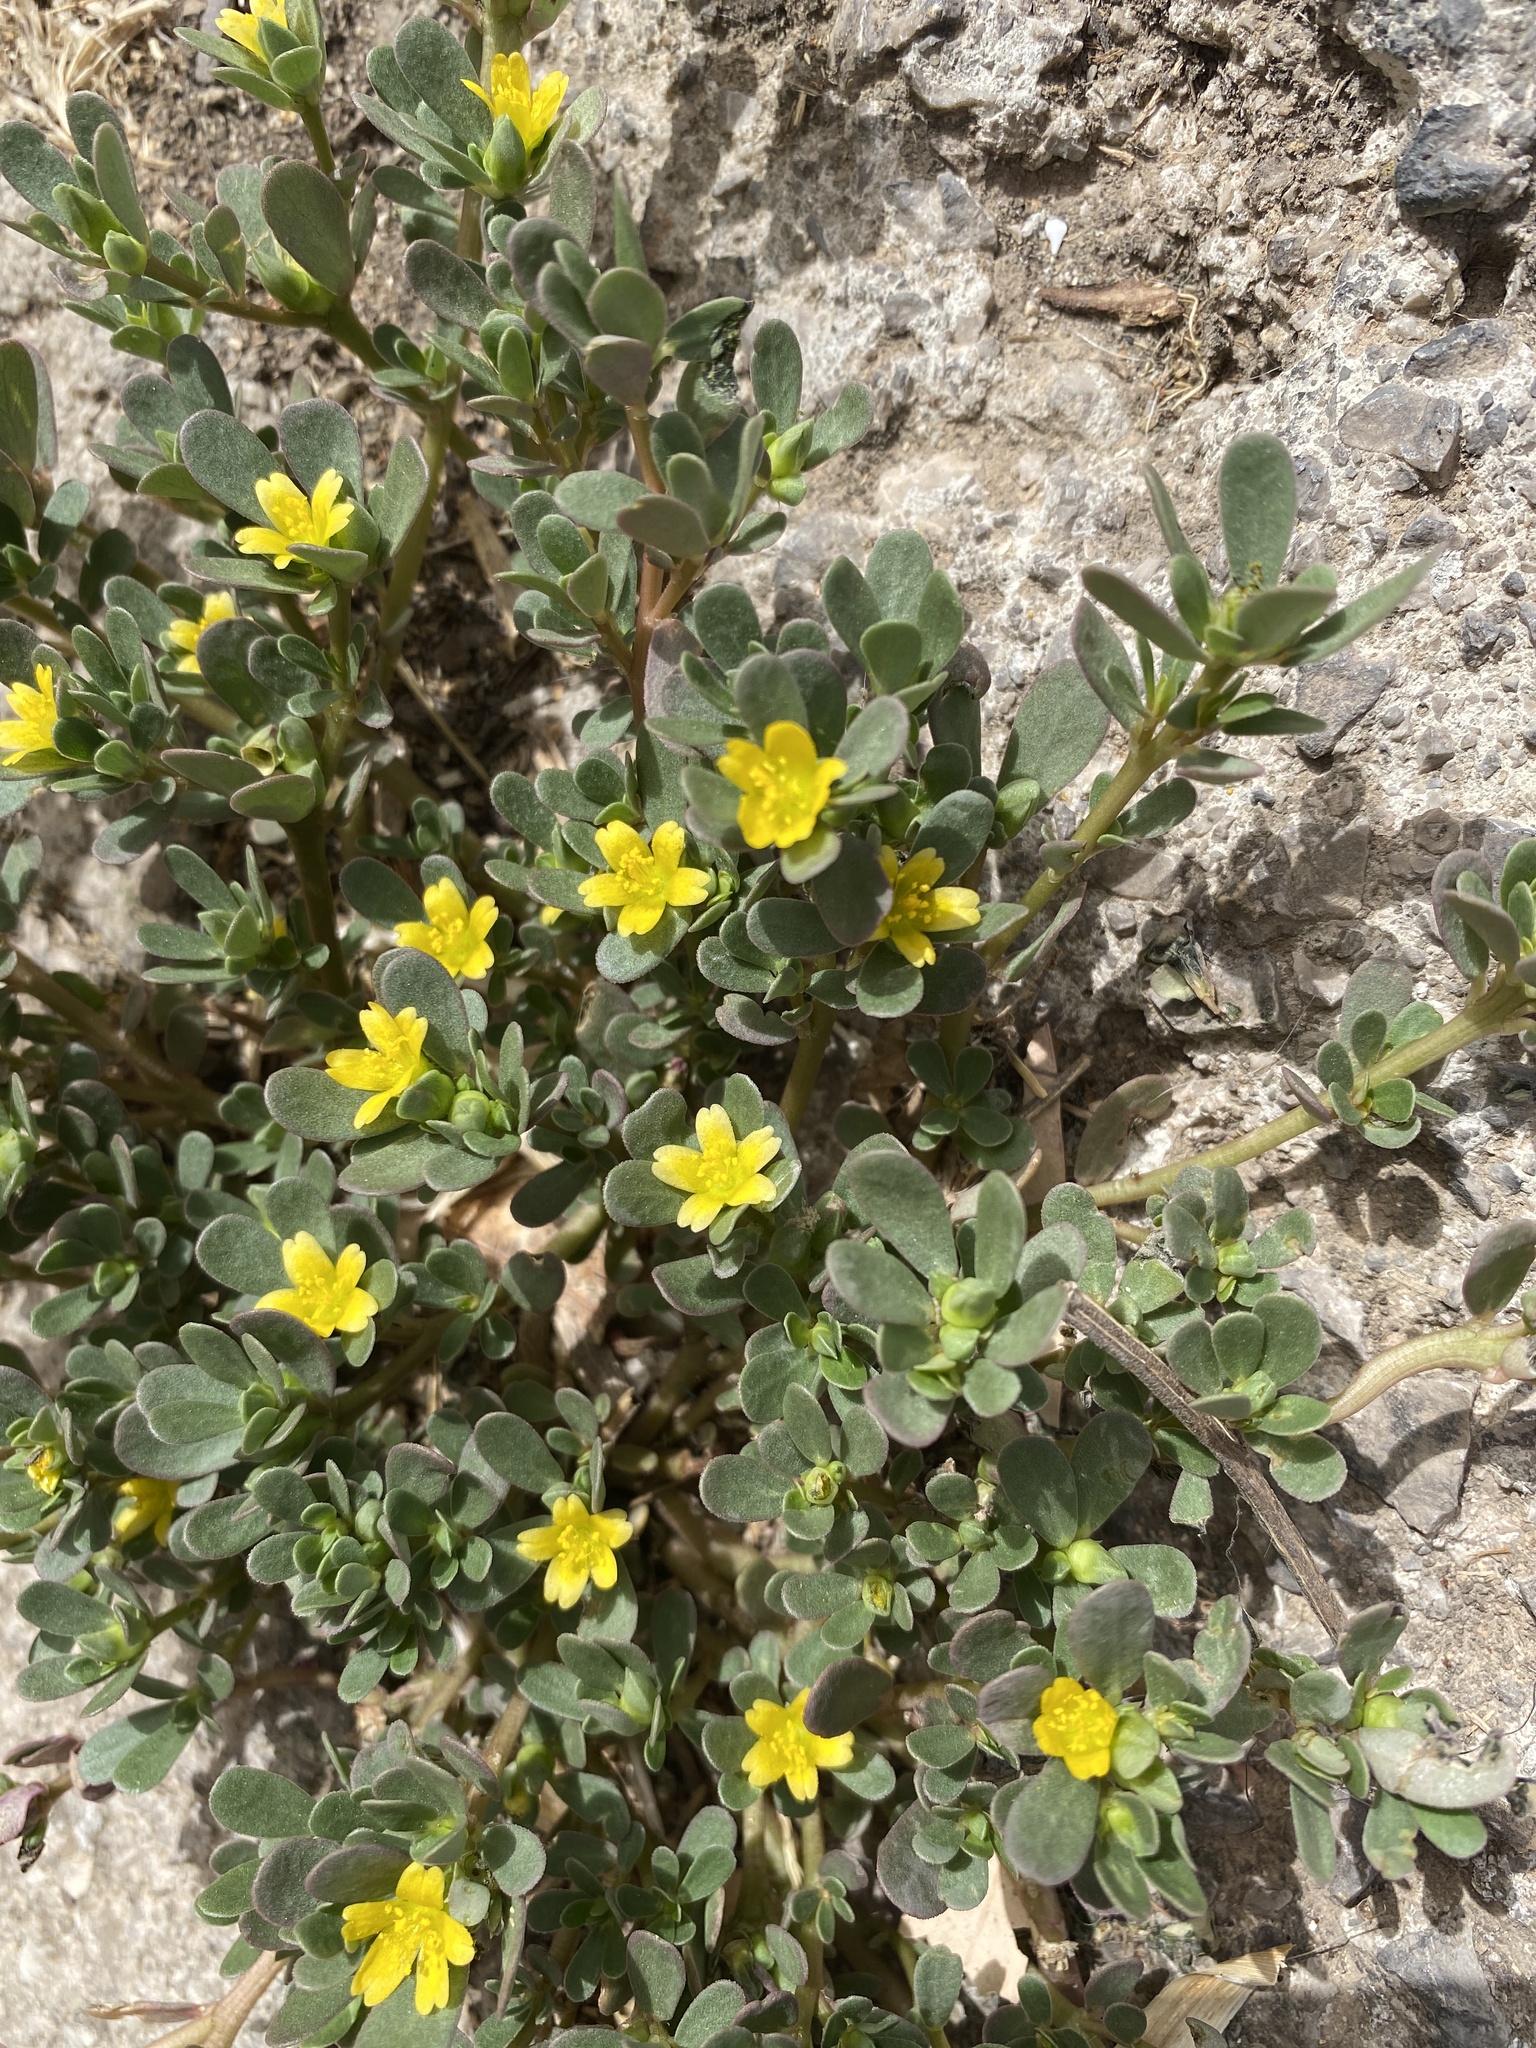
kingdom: Plantae
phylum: Tracheophyta
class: Magnoliopsida
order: Caryophyllales
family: Portulacaceae
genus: Portulaca
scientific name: Portulaca oleracea
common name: Common purslane
